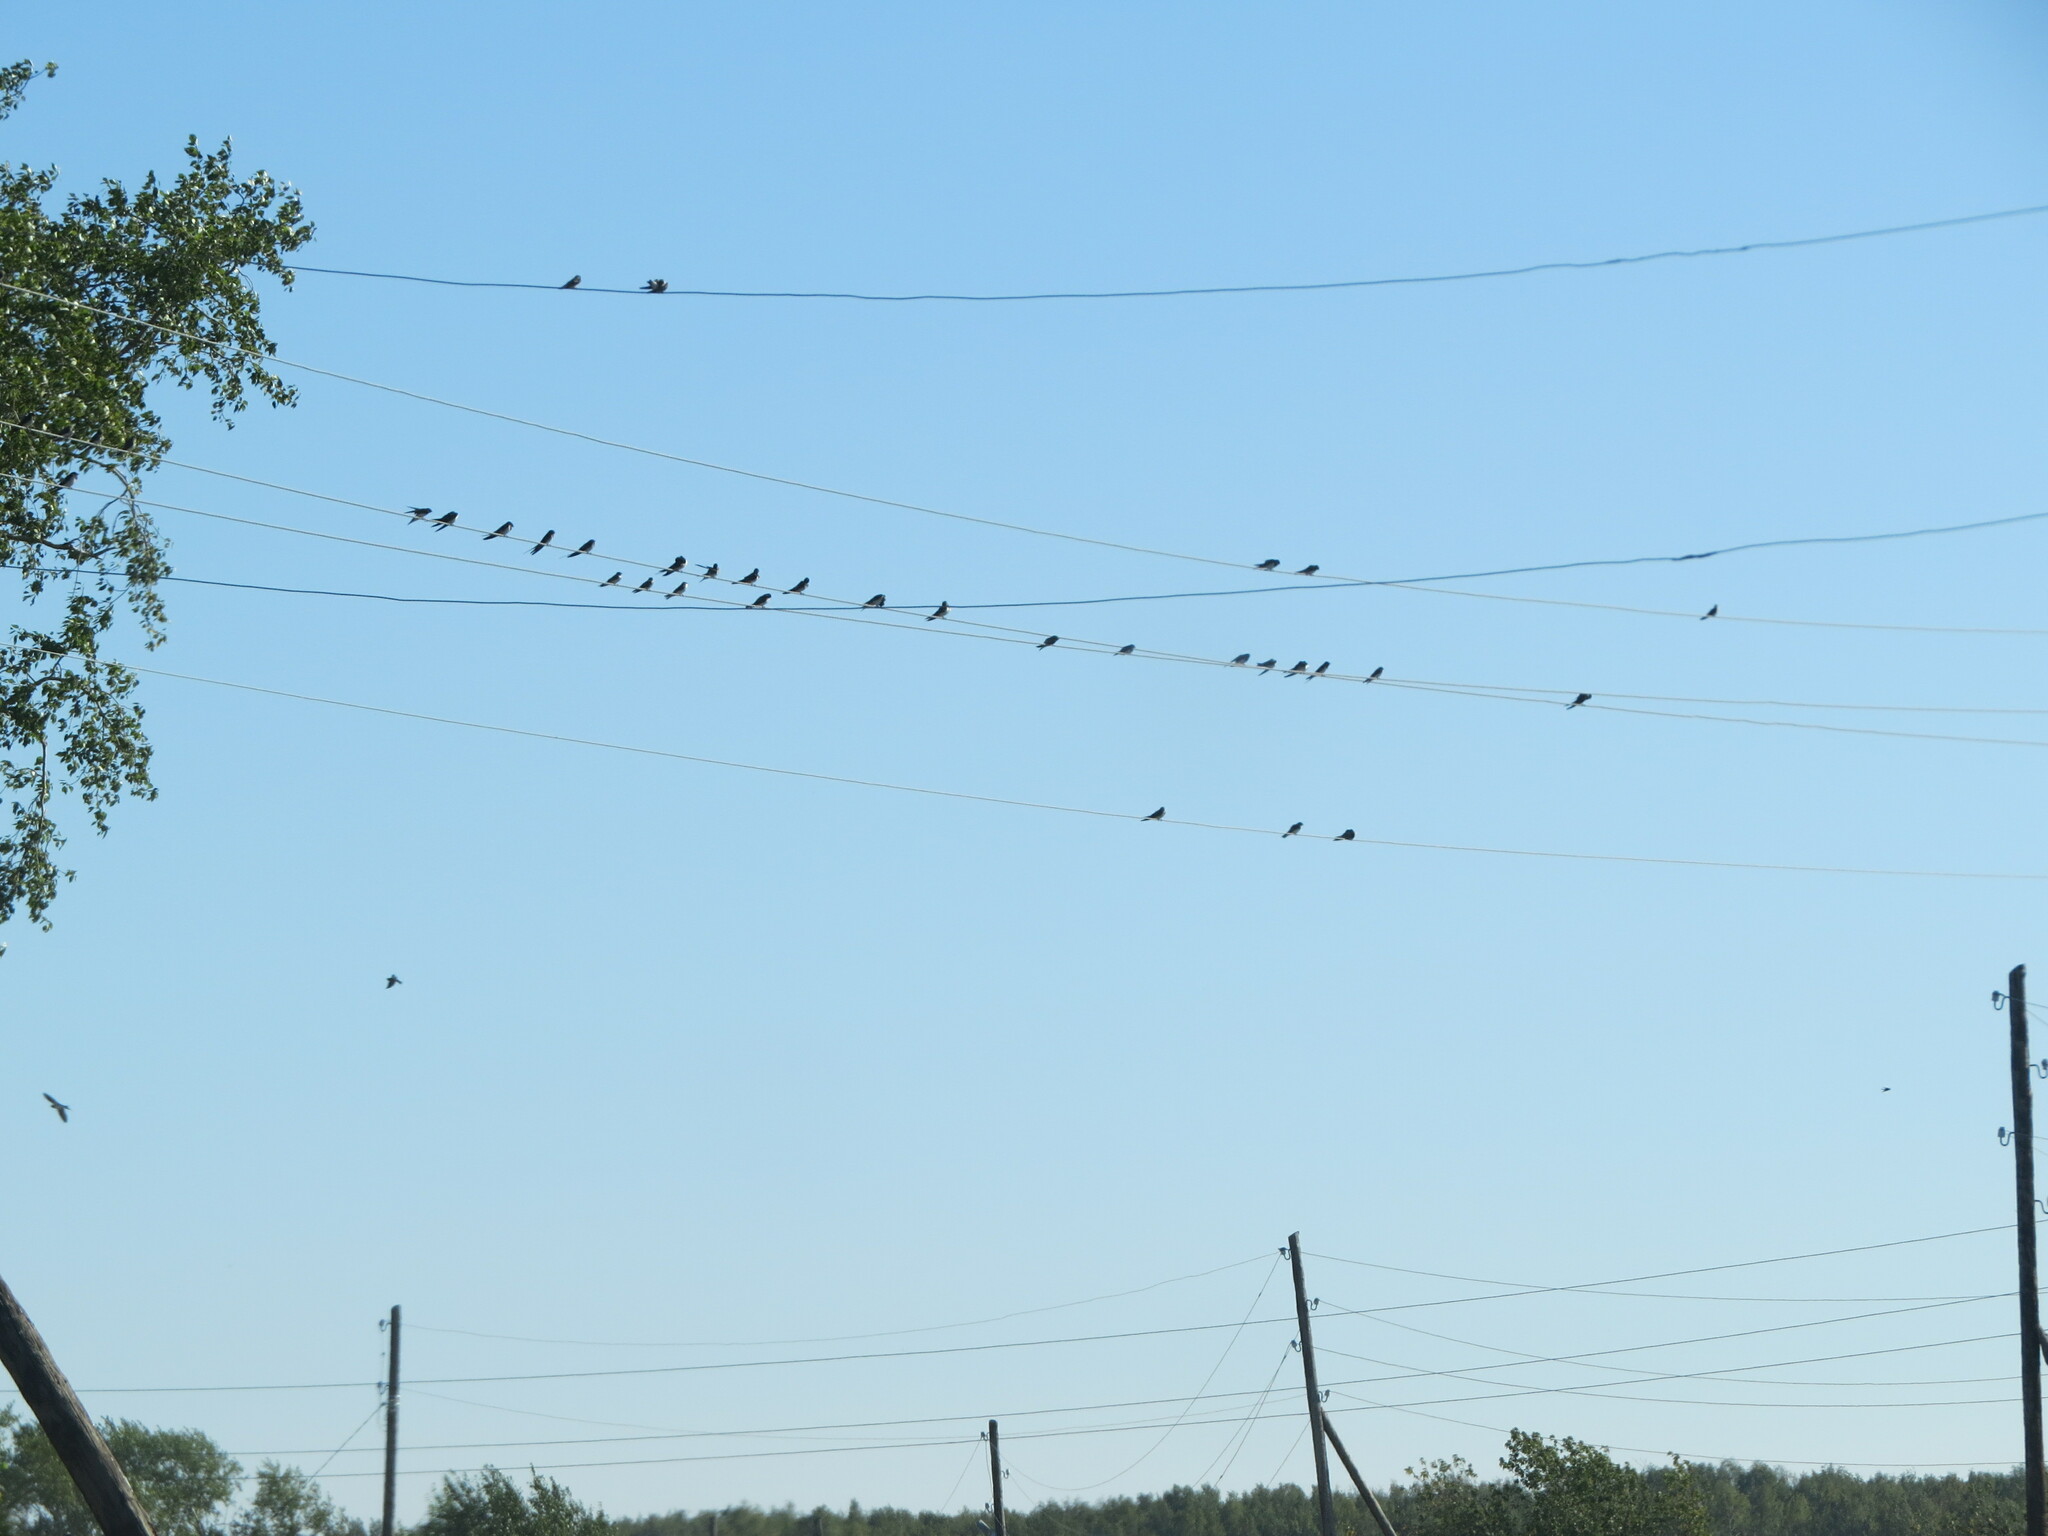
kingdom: Animalia
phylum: Chordata
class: Aves
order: Passeriformes
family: Hirundinidae
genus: Hirundo
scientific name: Hirundo rustica
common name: Barn swallow
